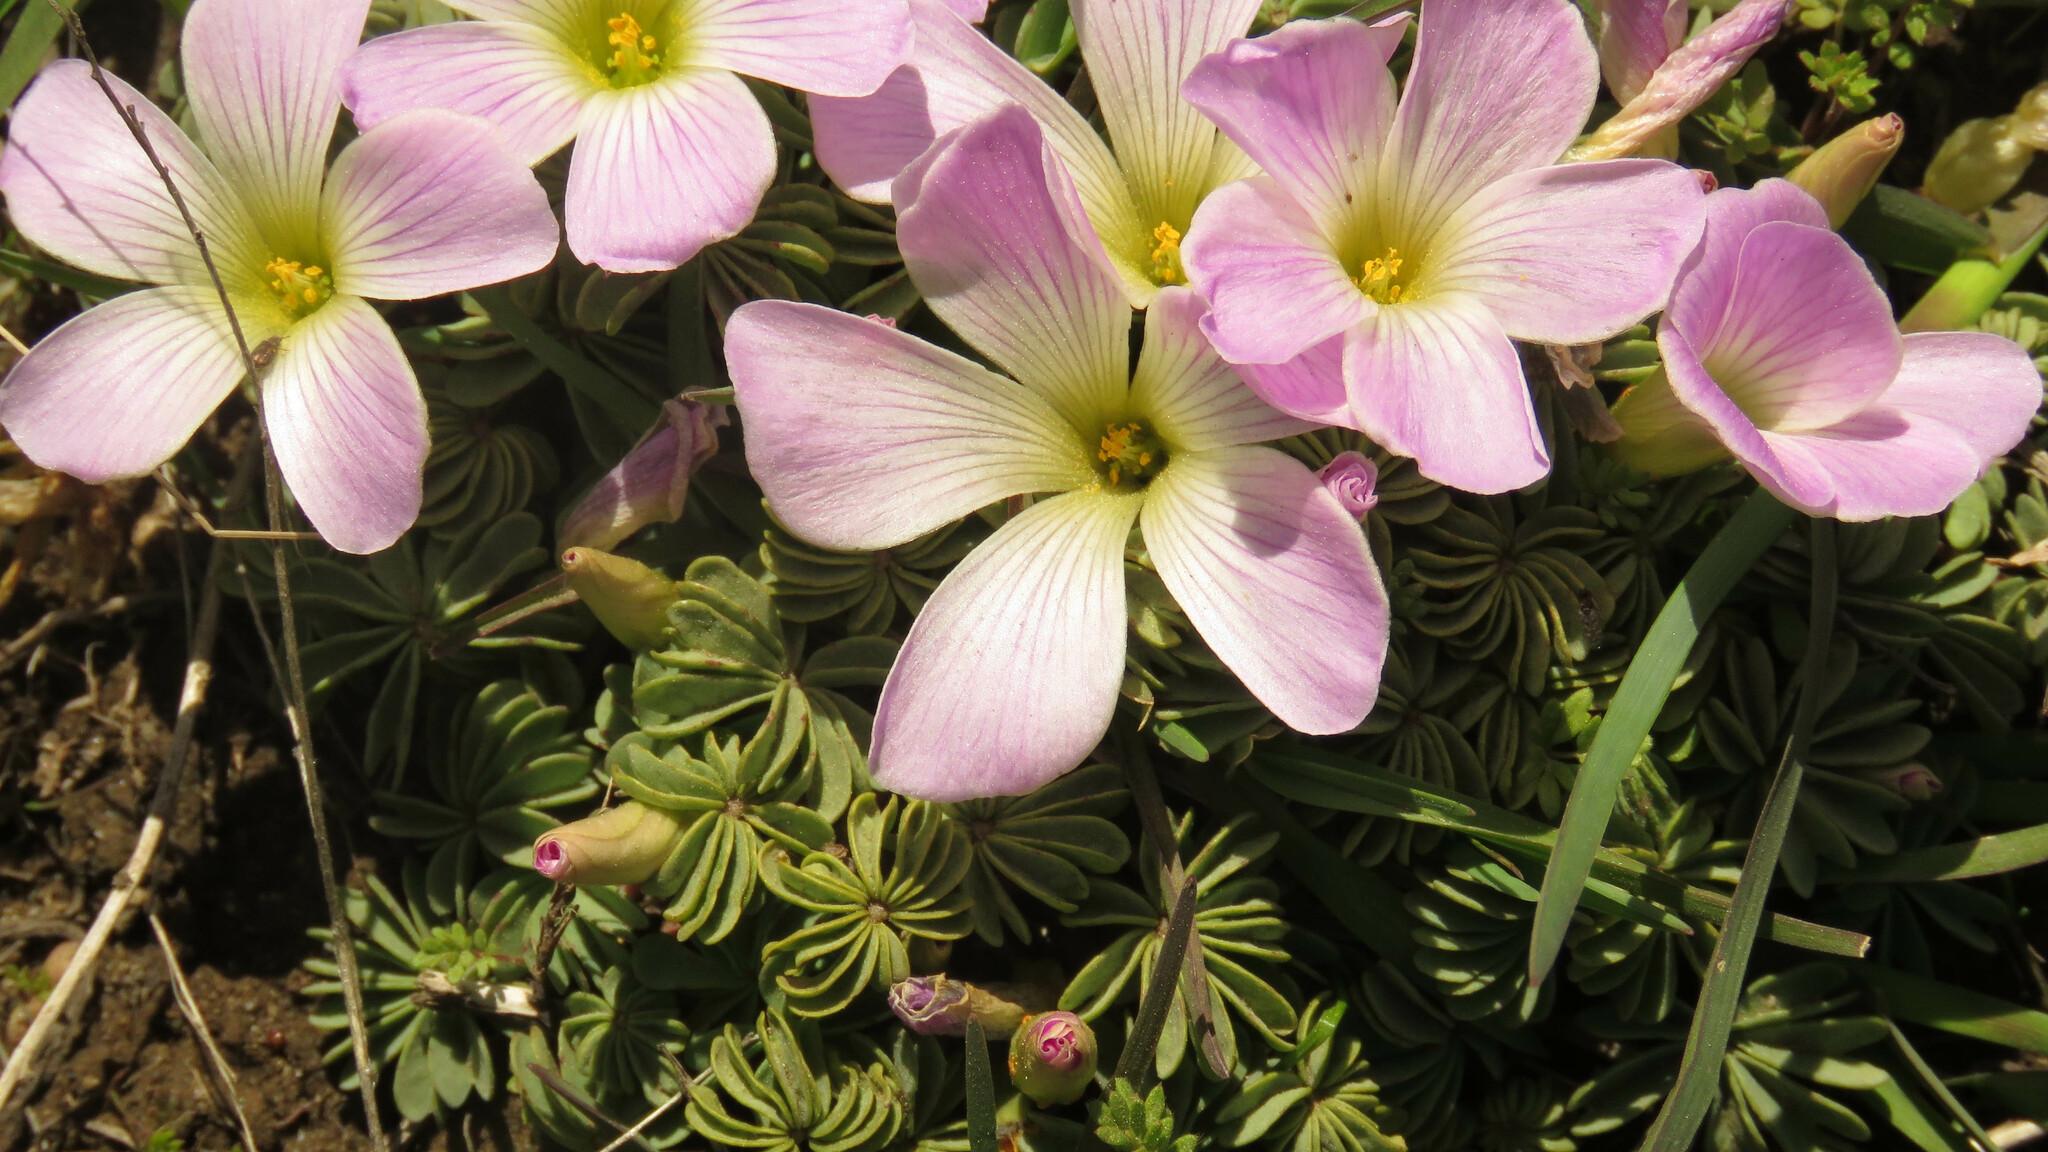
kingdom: Plantae
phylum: Tracheophyta
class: Magnoliopsida
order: Oxalidales
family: Oxalidaceae
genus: Oxalis
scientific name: Oxalis adenophylla
